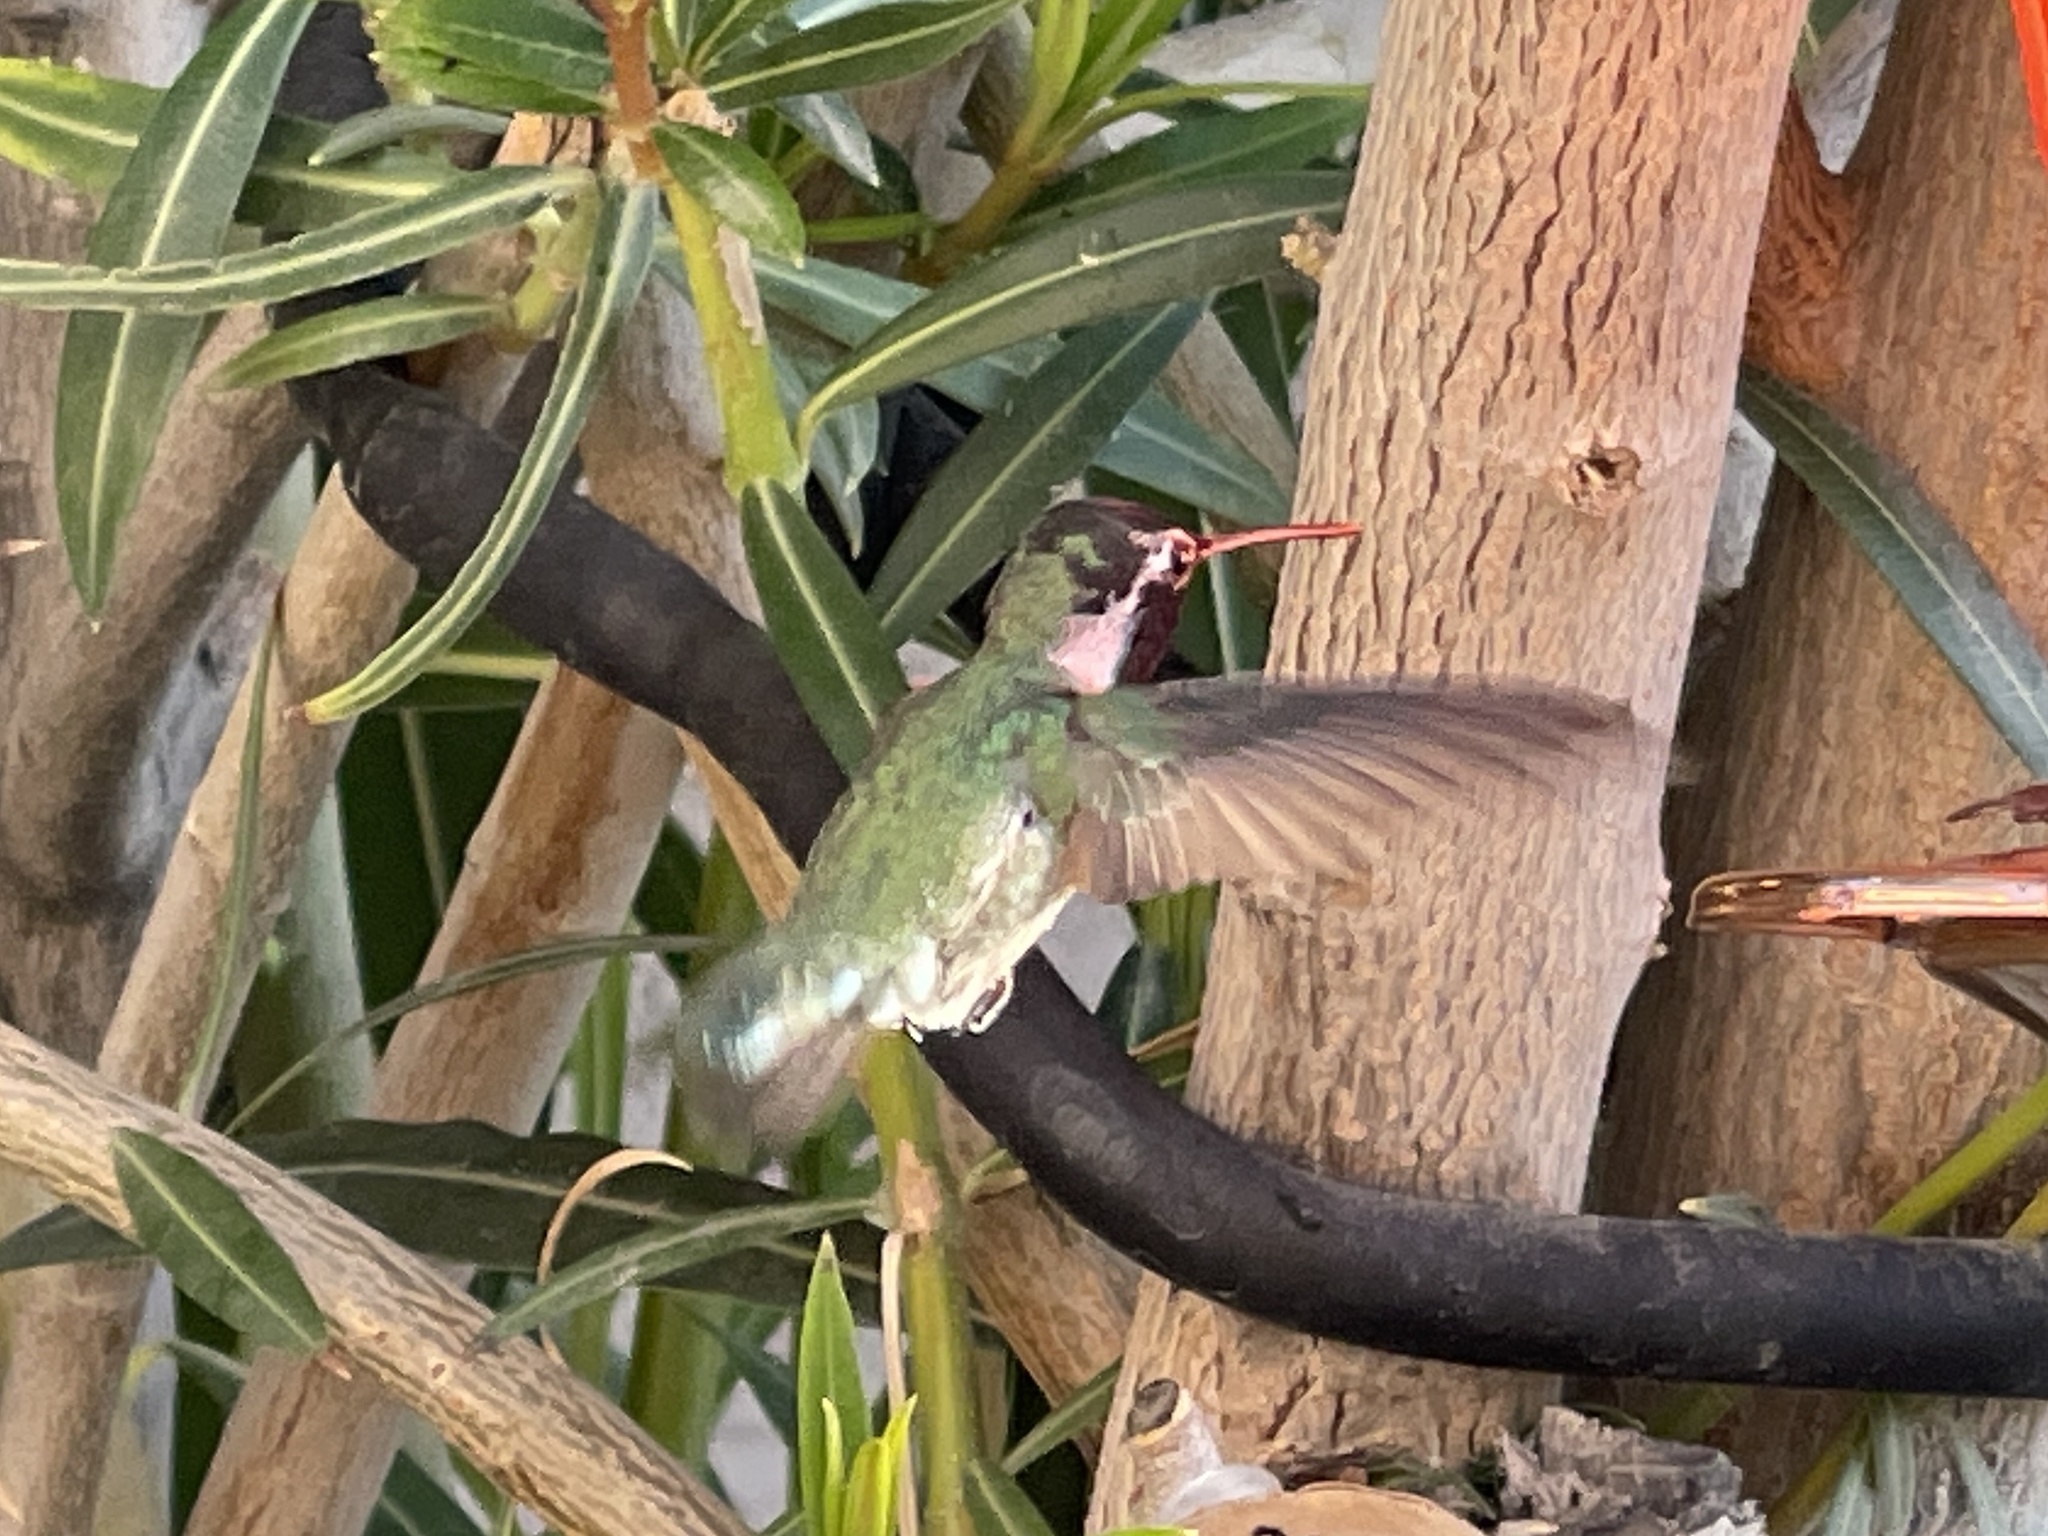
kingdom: Animalia
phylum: Chordata
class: Aves
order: Apodiformes
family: Trochilidae
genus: Calypte
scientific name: Calypte costae
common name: Costa's hummingbird
